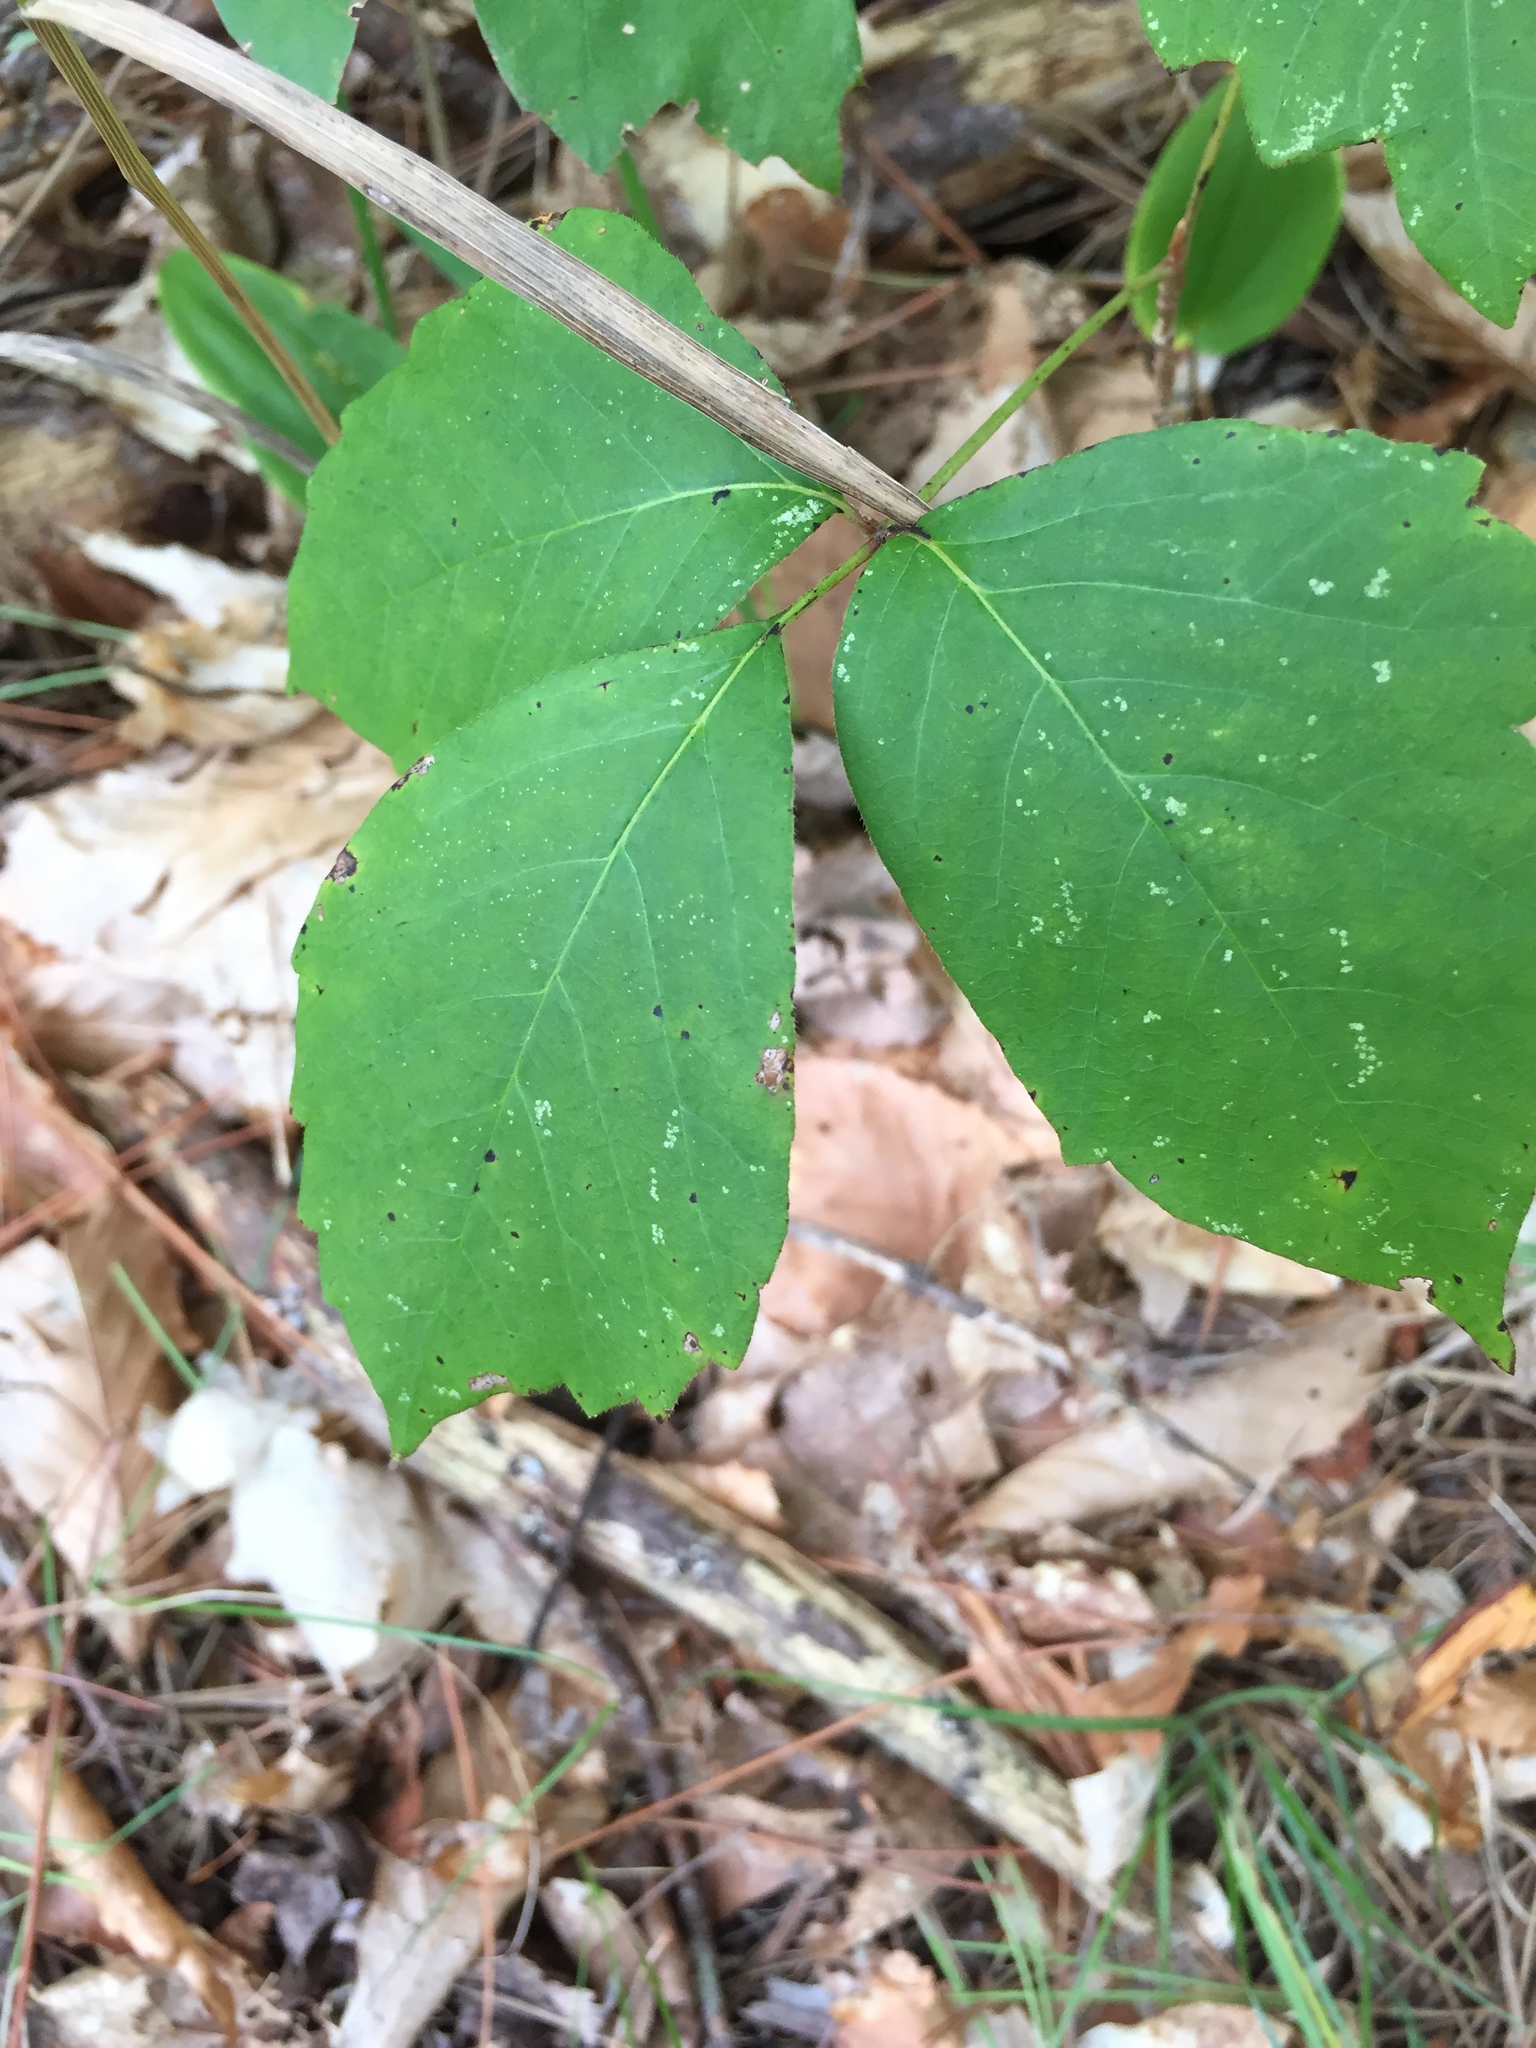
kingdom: Plantae
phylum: Tracheophyta
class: Magnoliopsida
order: Sapindales
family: Anacardiaceae
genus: Toxicodendron
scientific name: Toxicodendron rydbergii
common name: Rydberg's poison-ivy
